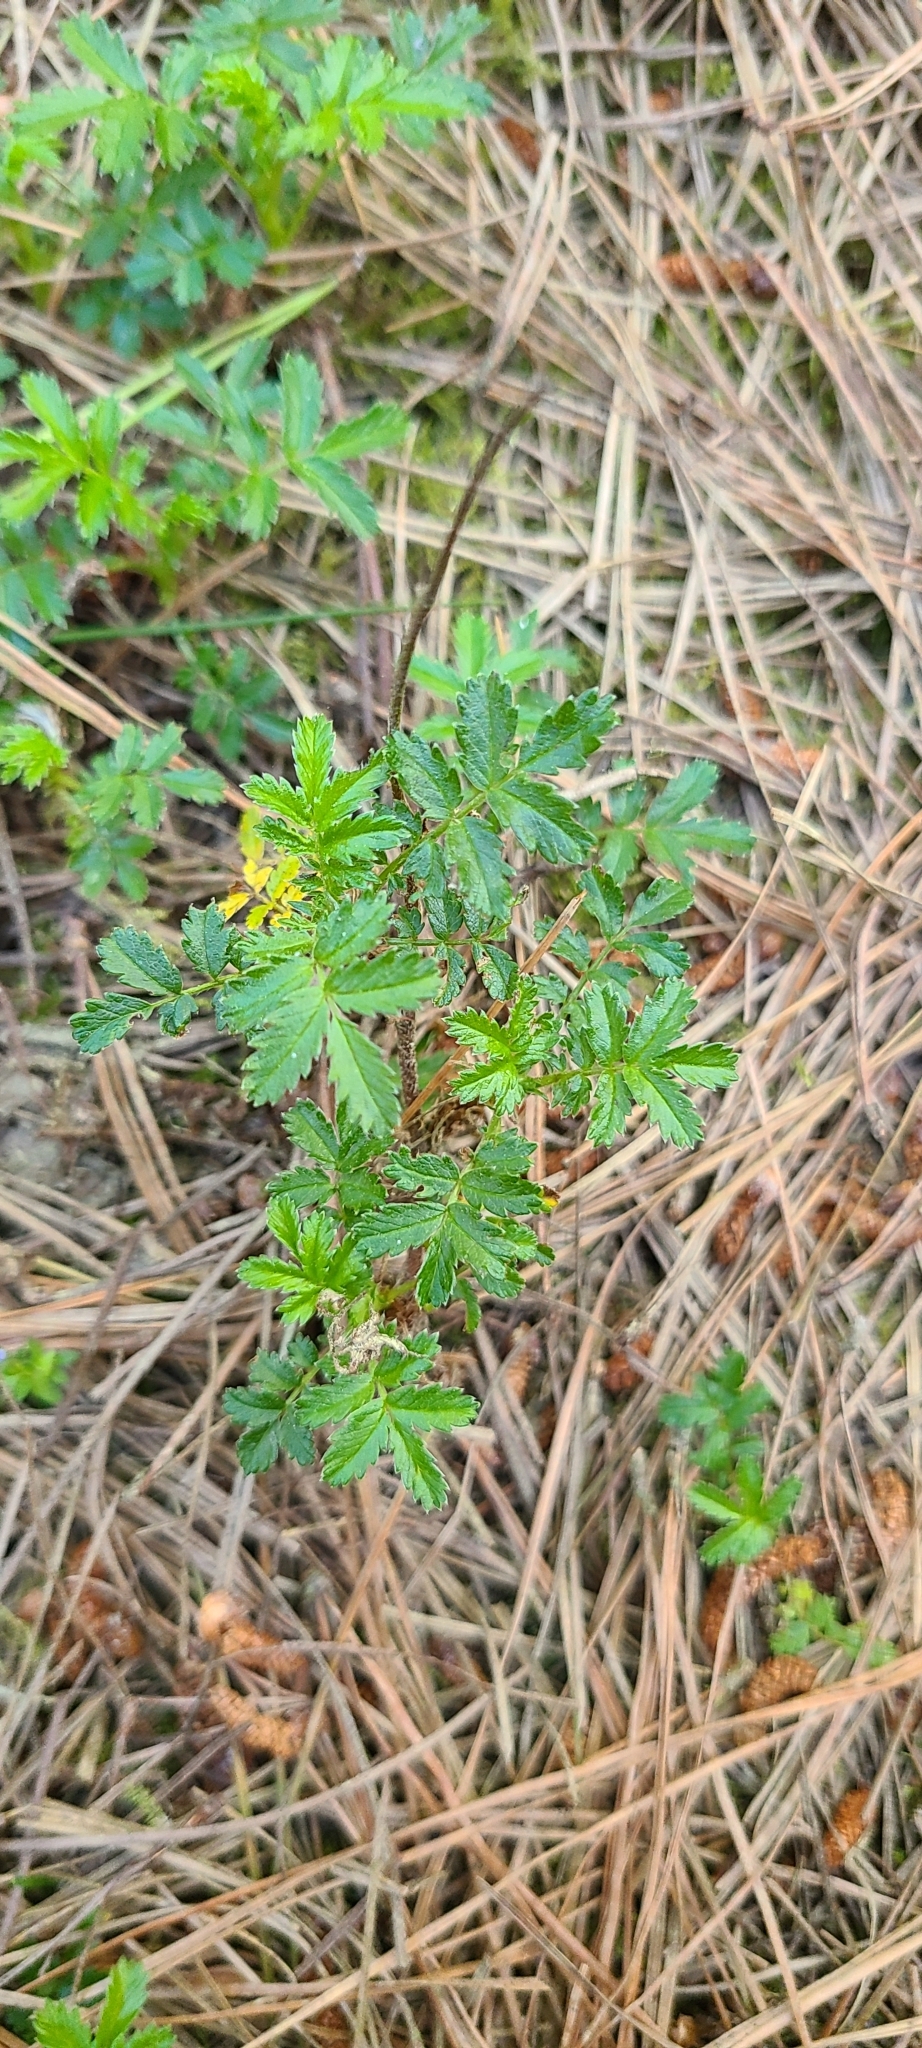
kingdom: Plantae
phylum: Tracheophyta
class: Magnoliopsida
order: Rosales
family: Rosaceae
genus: Acaena
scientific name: Acaena novae-zelandiae
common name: Pirri-pirri-bur
